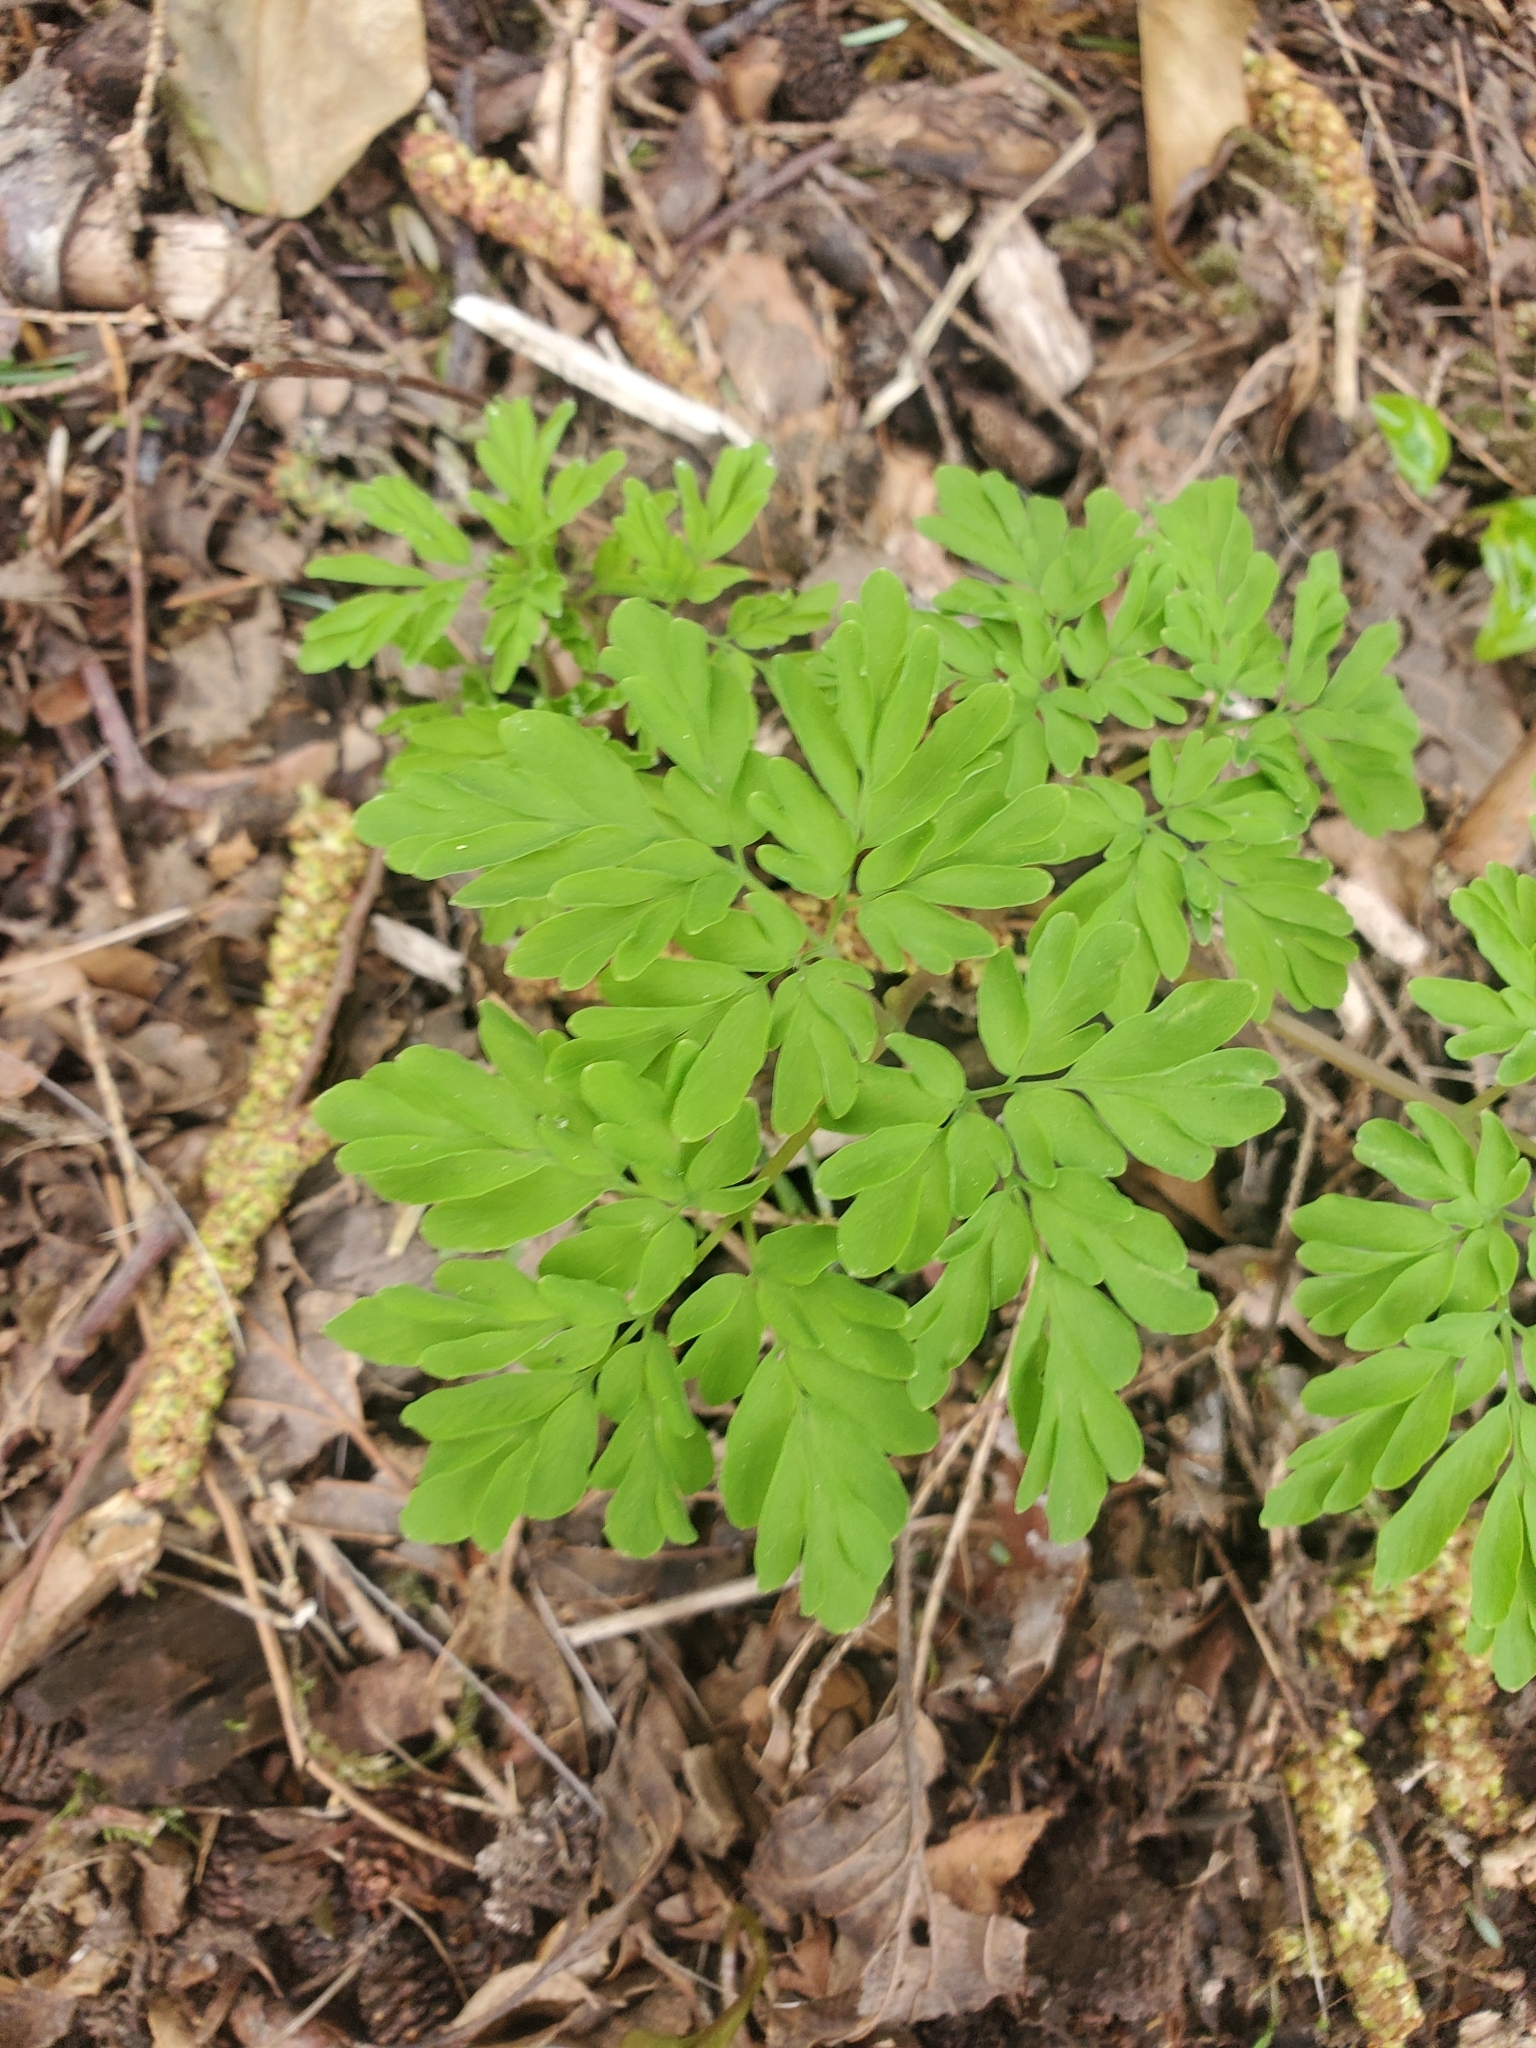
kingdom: Plantae
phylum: Tracheophyta
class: Magnoliopsida
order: Ranunculales
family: Papaveraceae
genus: Corydalis
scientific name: Corydalis scouleri
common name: Scouler's corydalis
